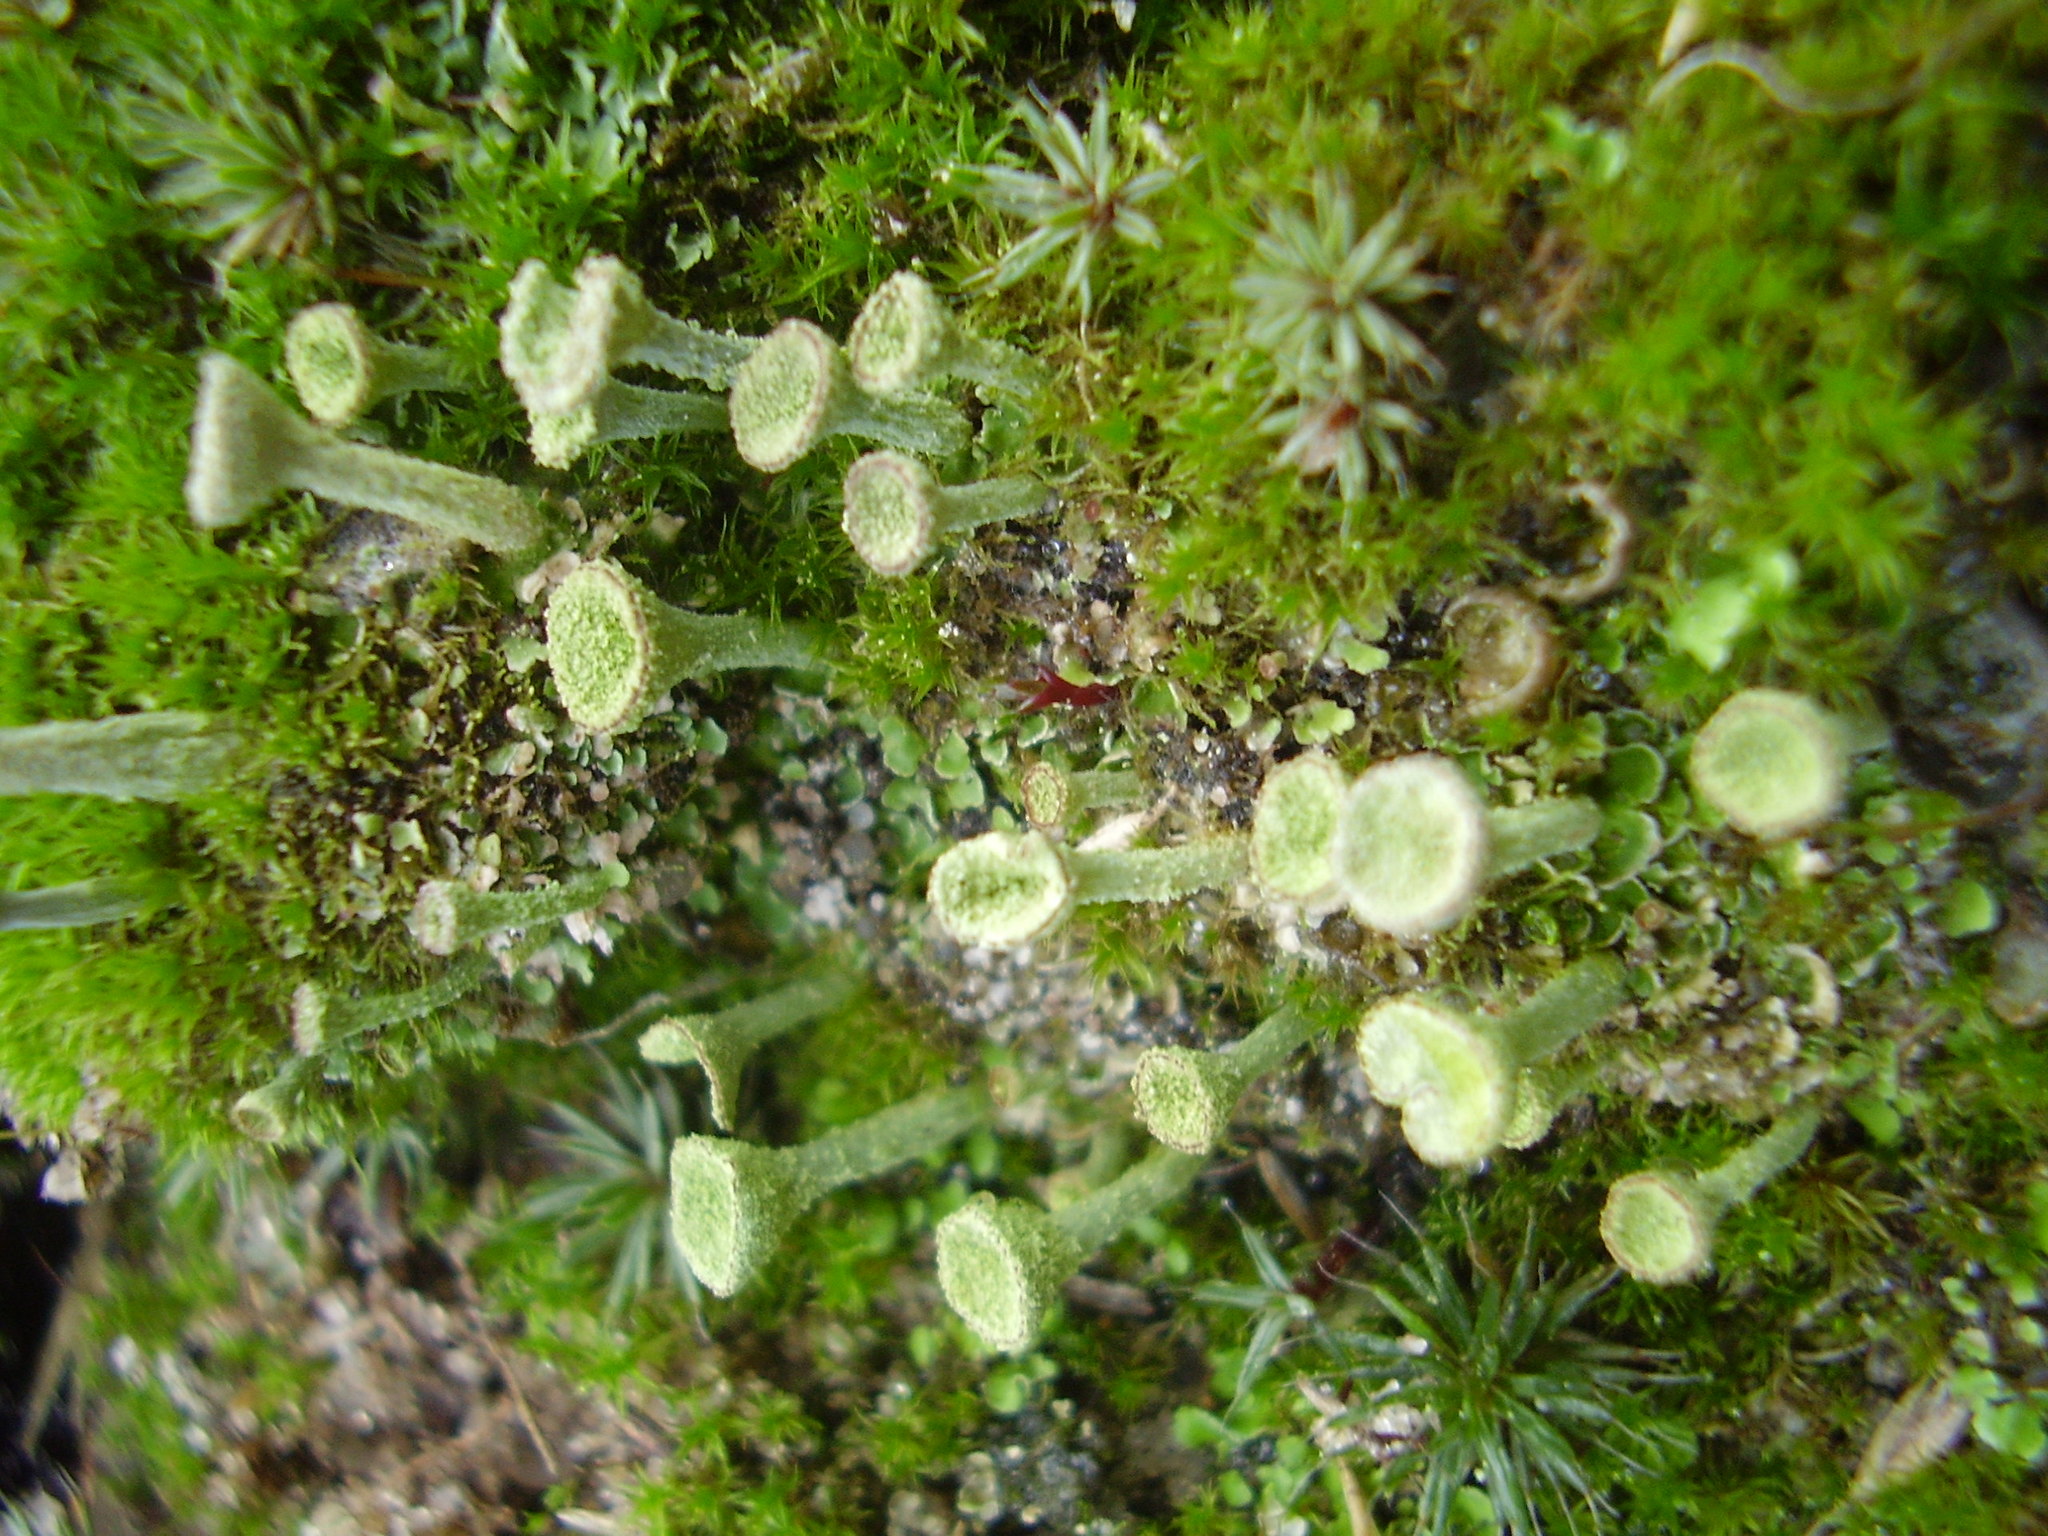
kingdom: Fungi
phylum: Ascomycota
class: Lecanoromycetes
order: Lecanorales
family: Cladoniaceae
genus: Cladonia
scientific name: Cladonia fimbriata
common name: Powdered trumpet lichen
